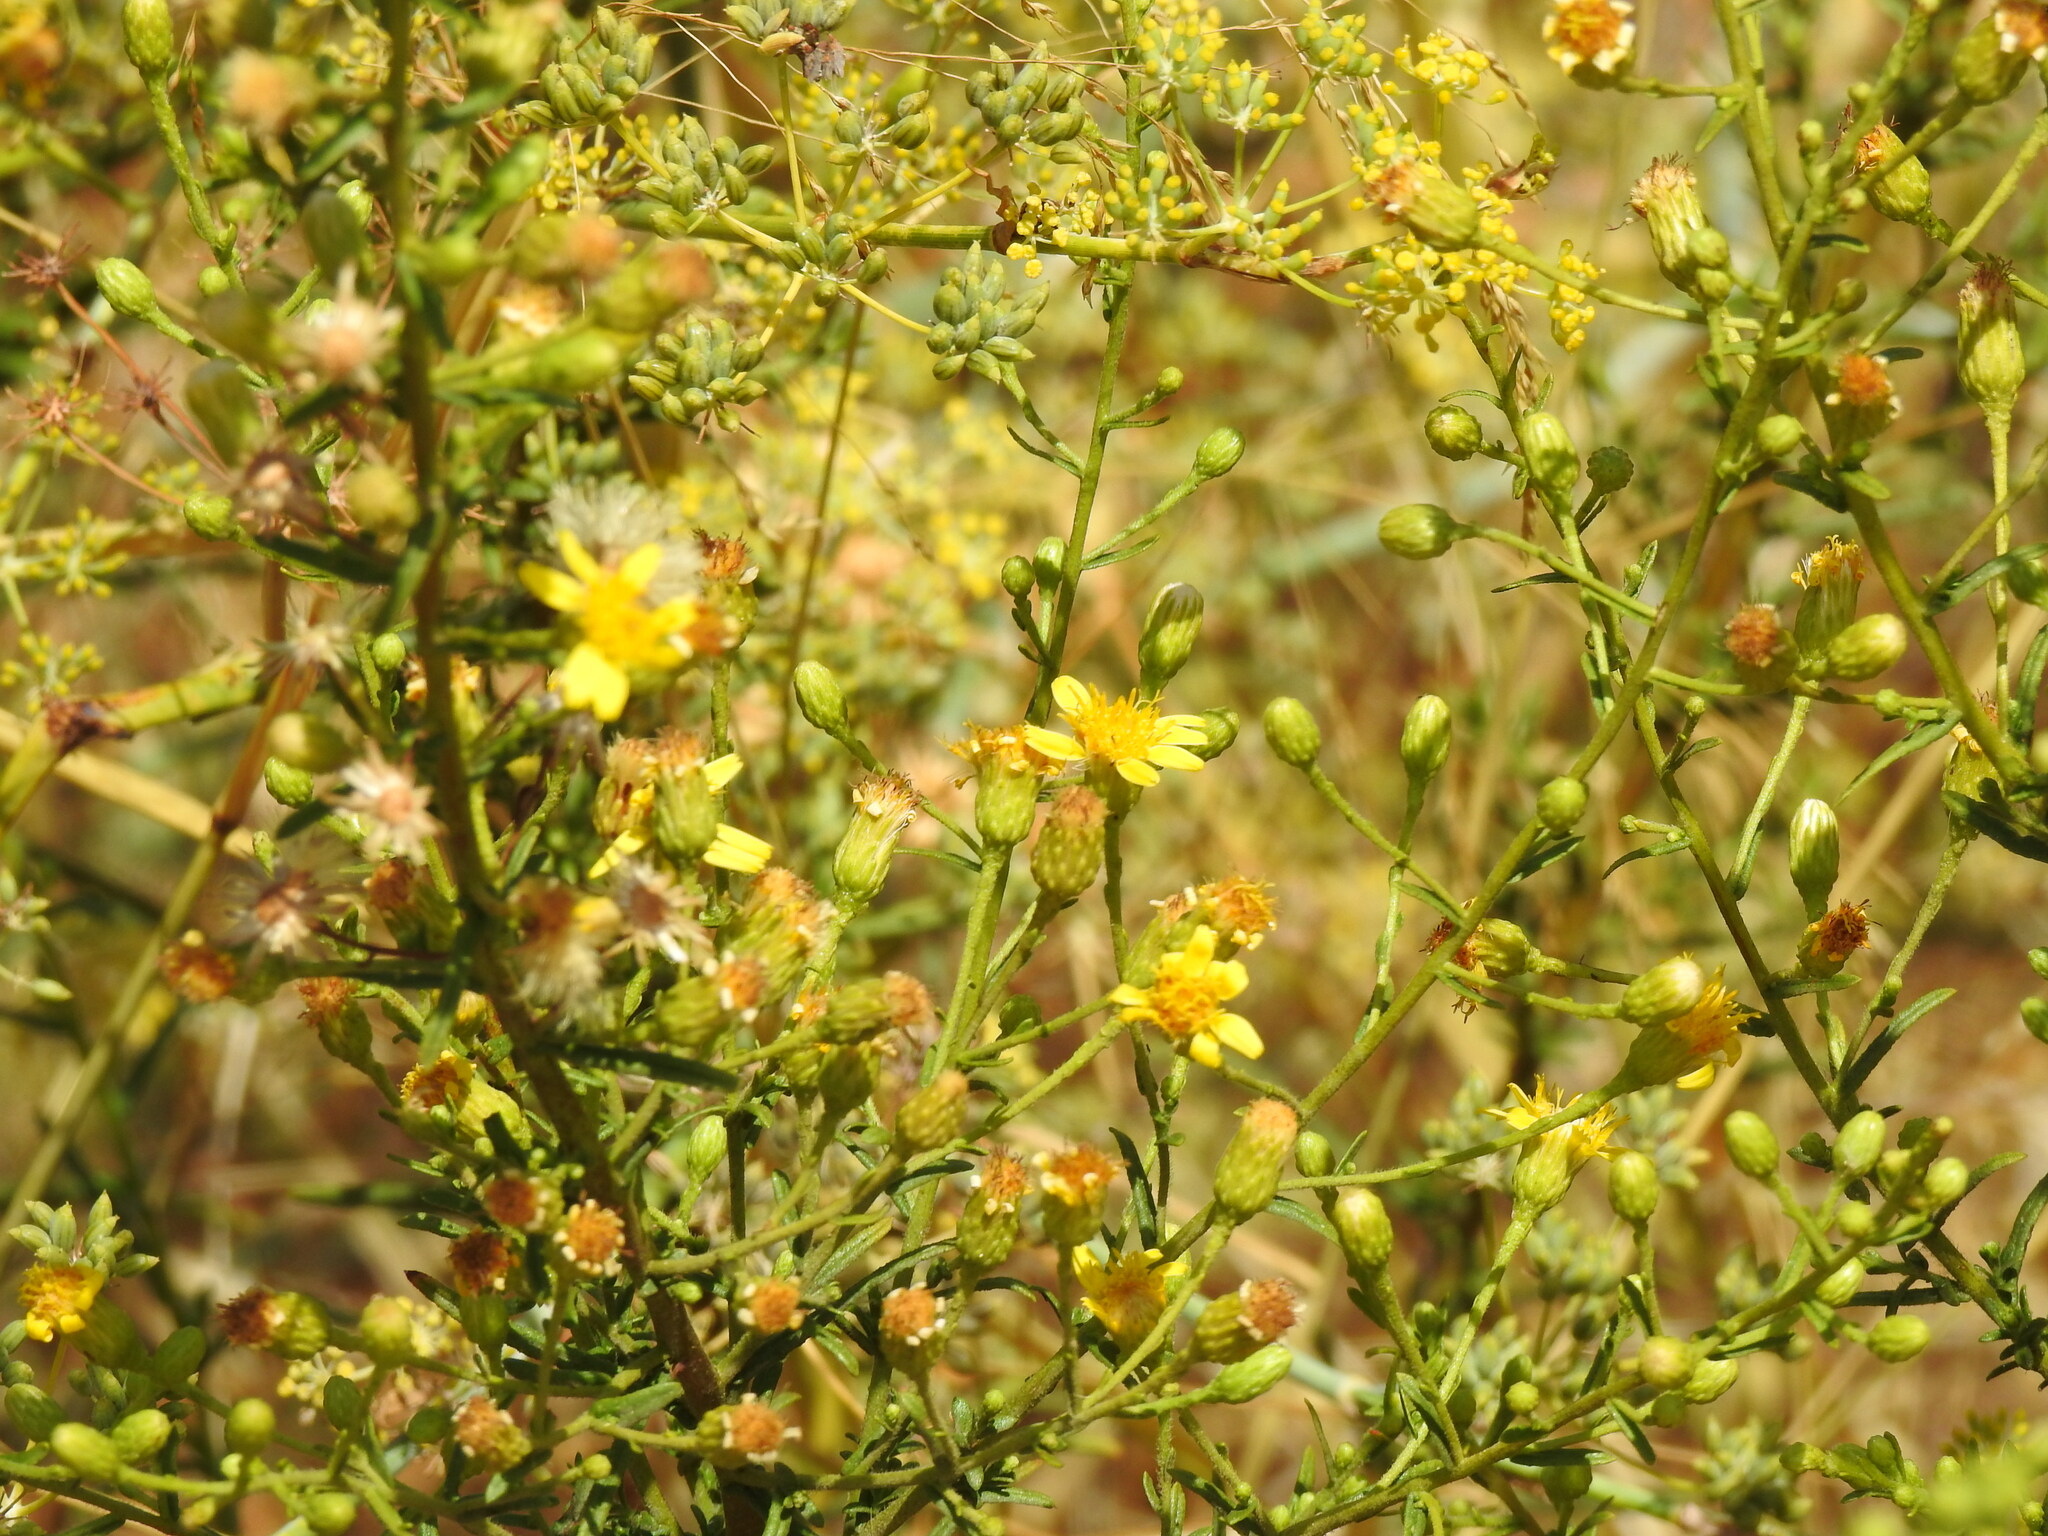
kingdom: Plantae
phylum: Tracheophyta
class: Magnoliopsida
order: Asterales
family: Asteraceae
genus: Dittrichia
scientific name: Dittrichia viscosa
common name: Woody fleabane
